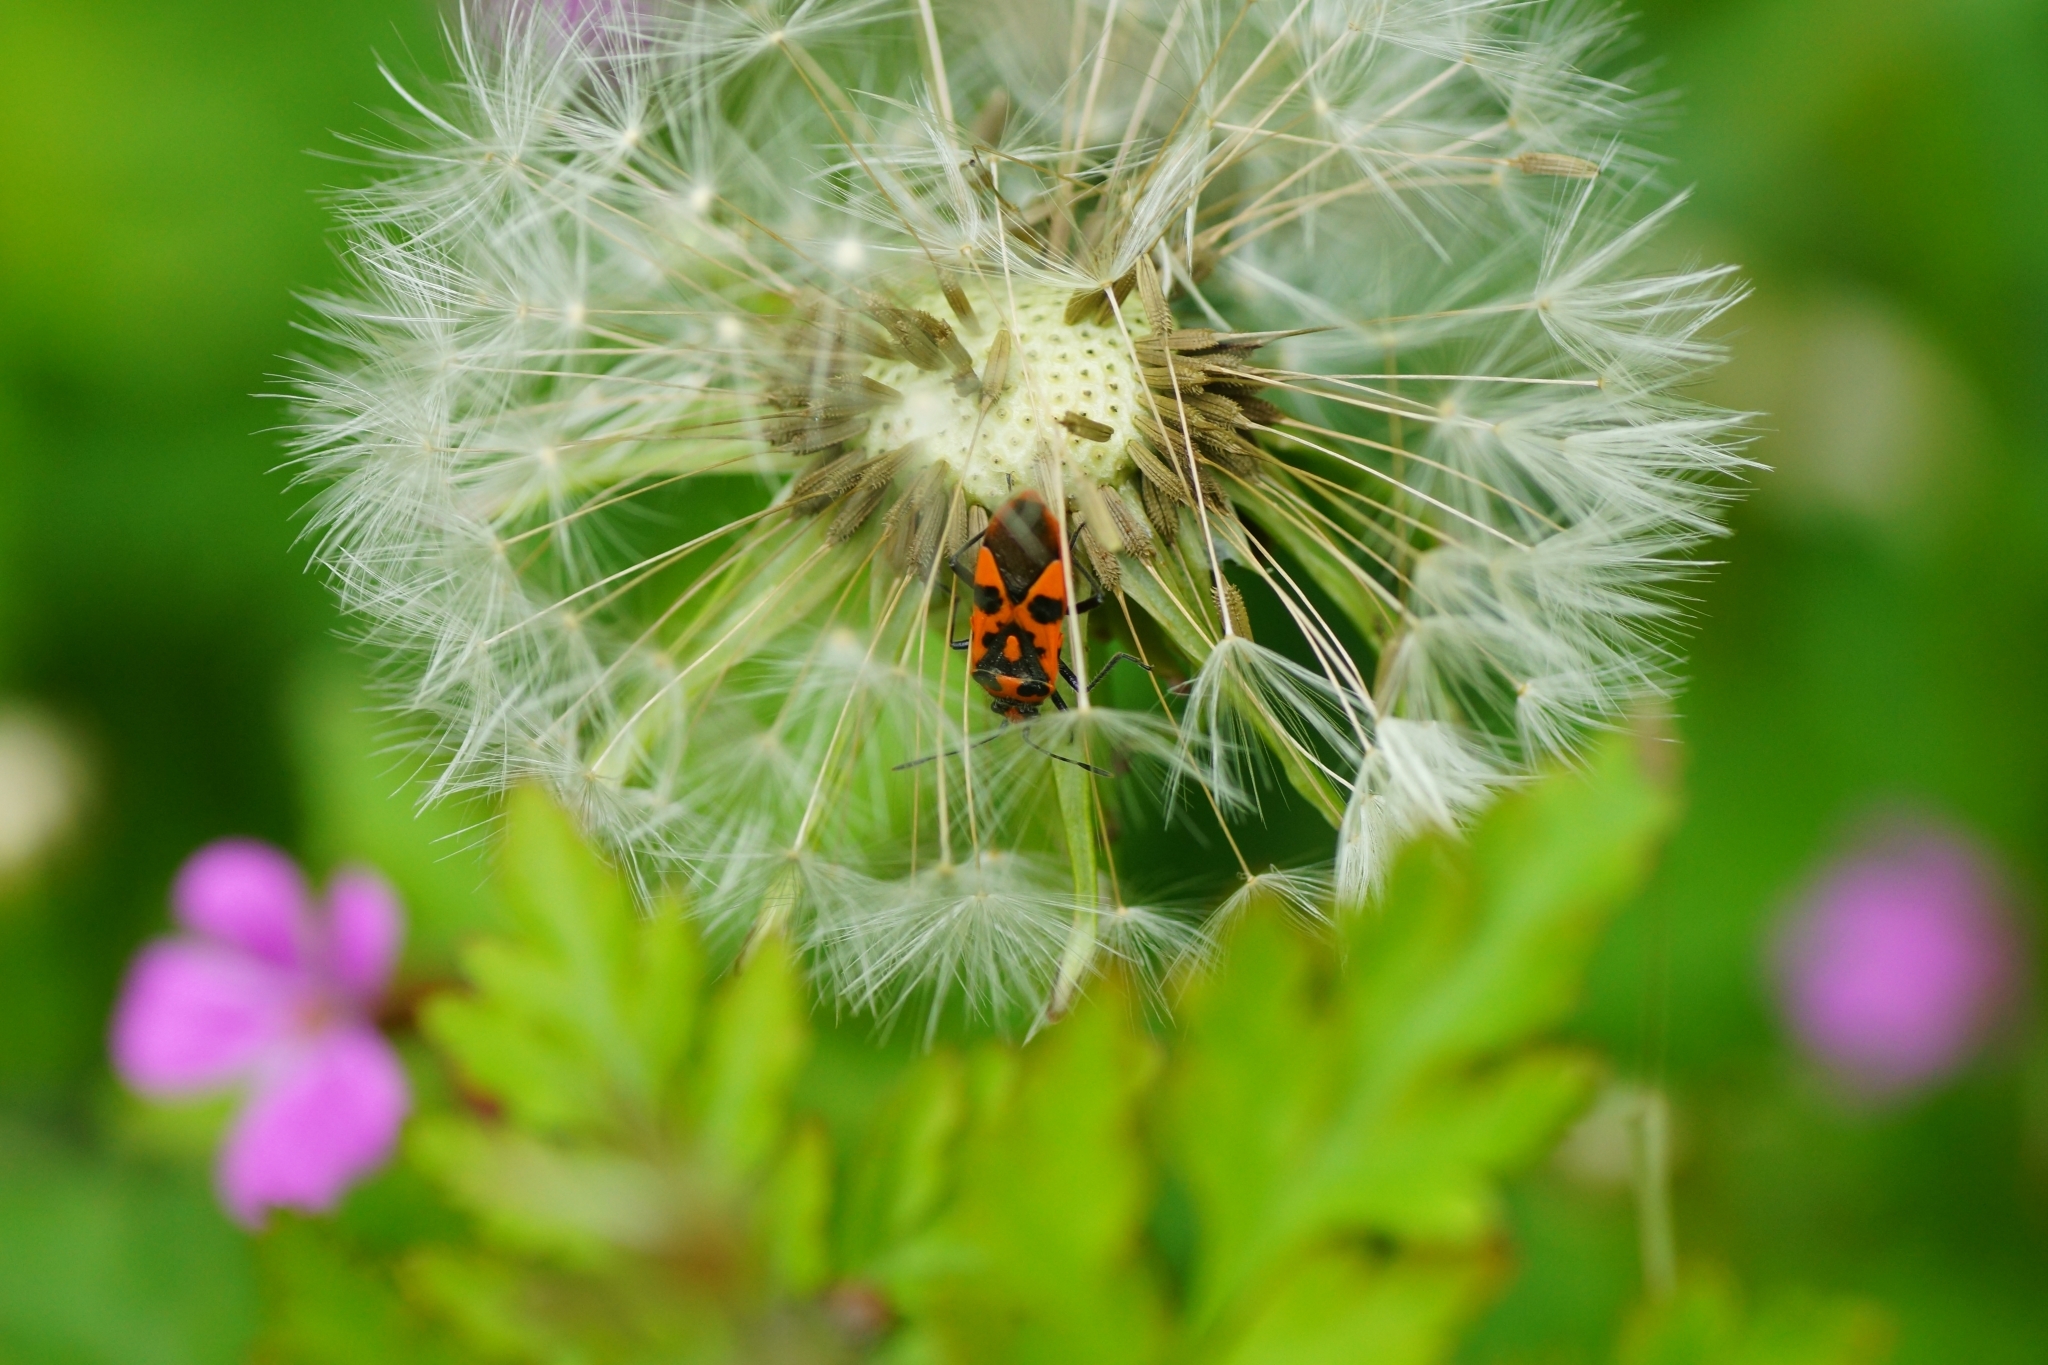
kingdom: Animalia
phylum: Arthropoda
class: Insecta
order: Hemiptera
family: Rhopalidae
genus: Corizus
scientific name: Corizus hyoscyami
